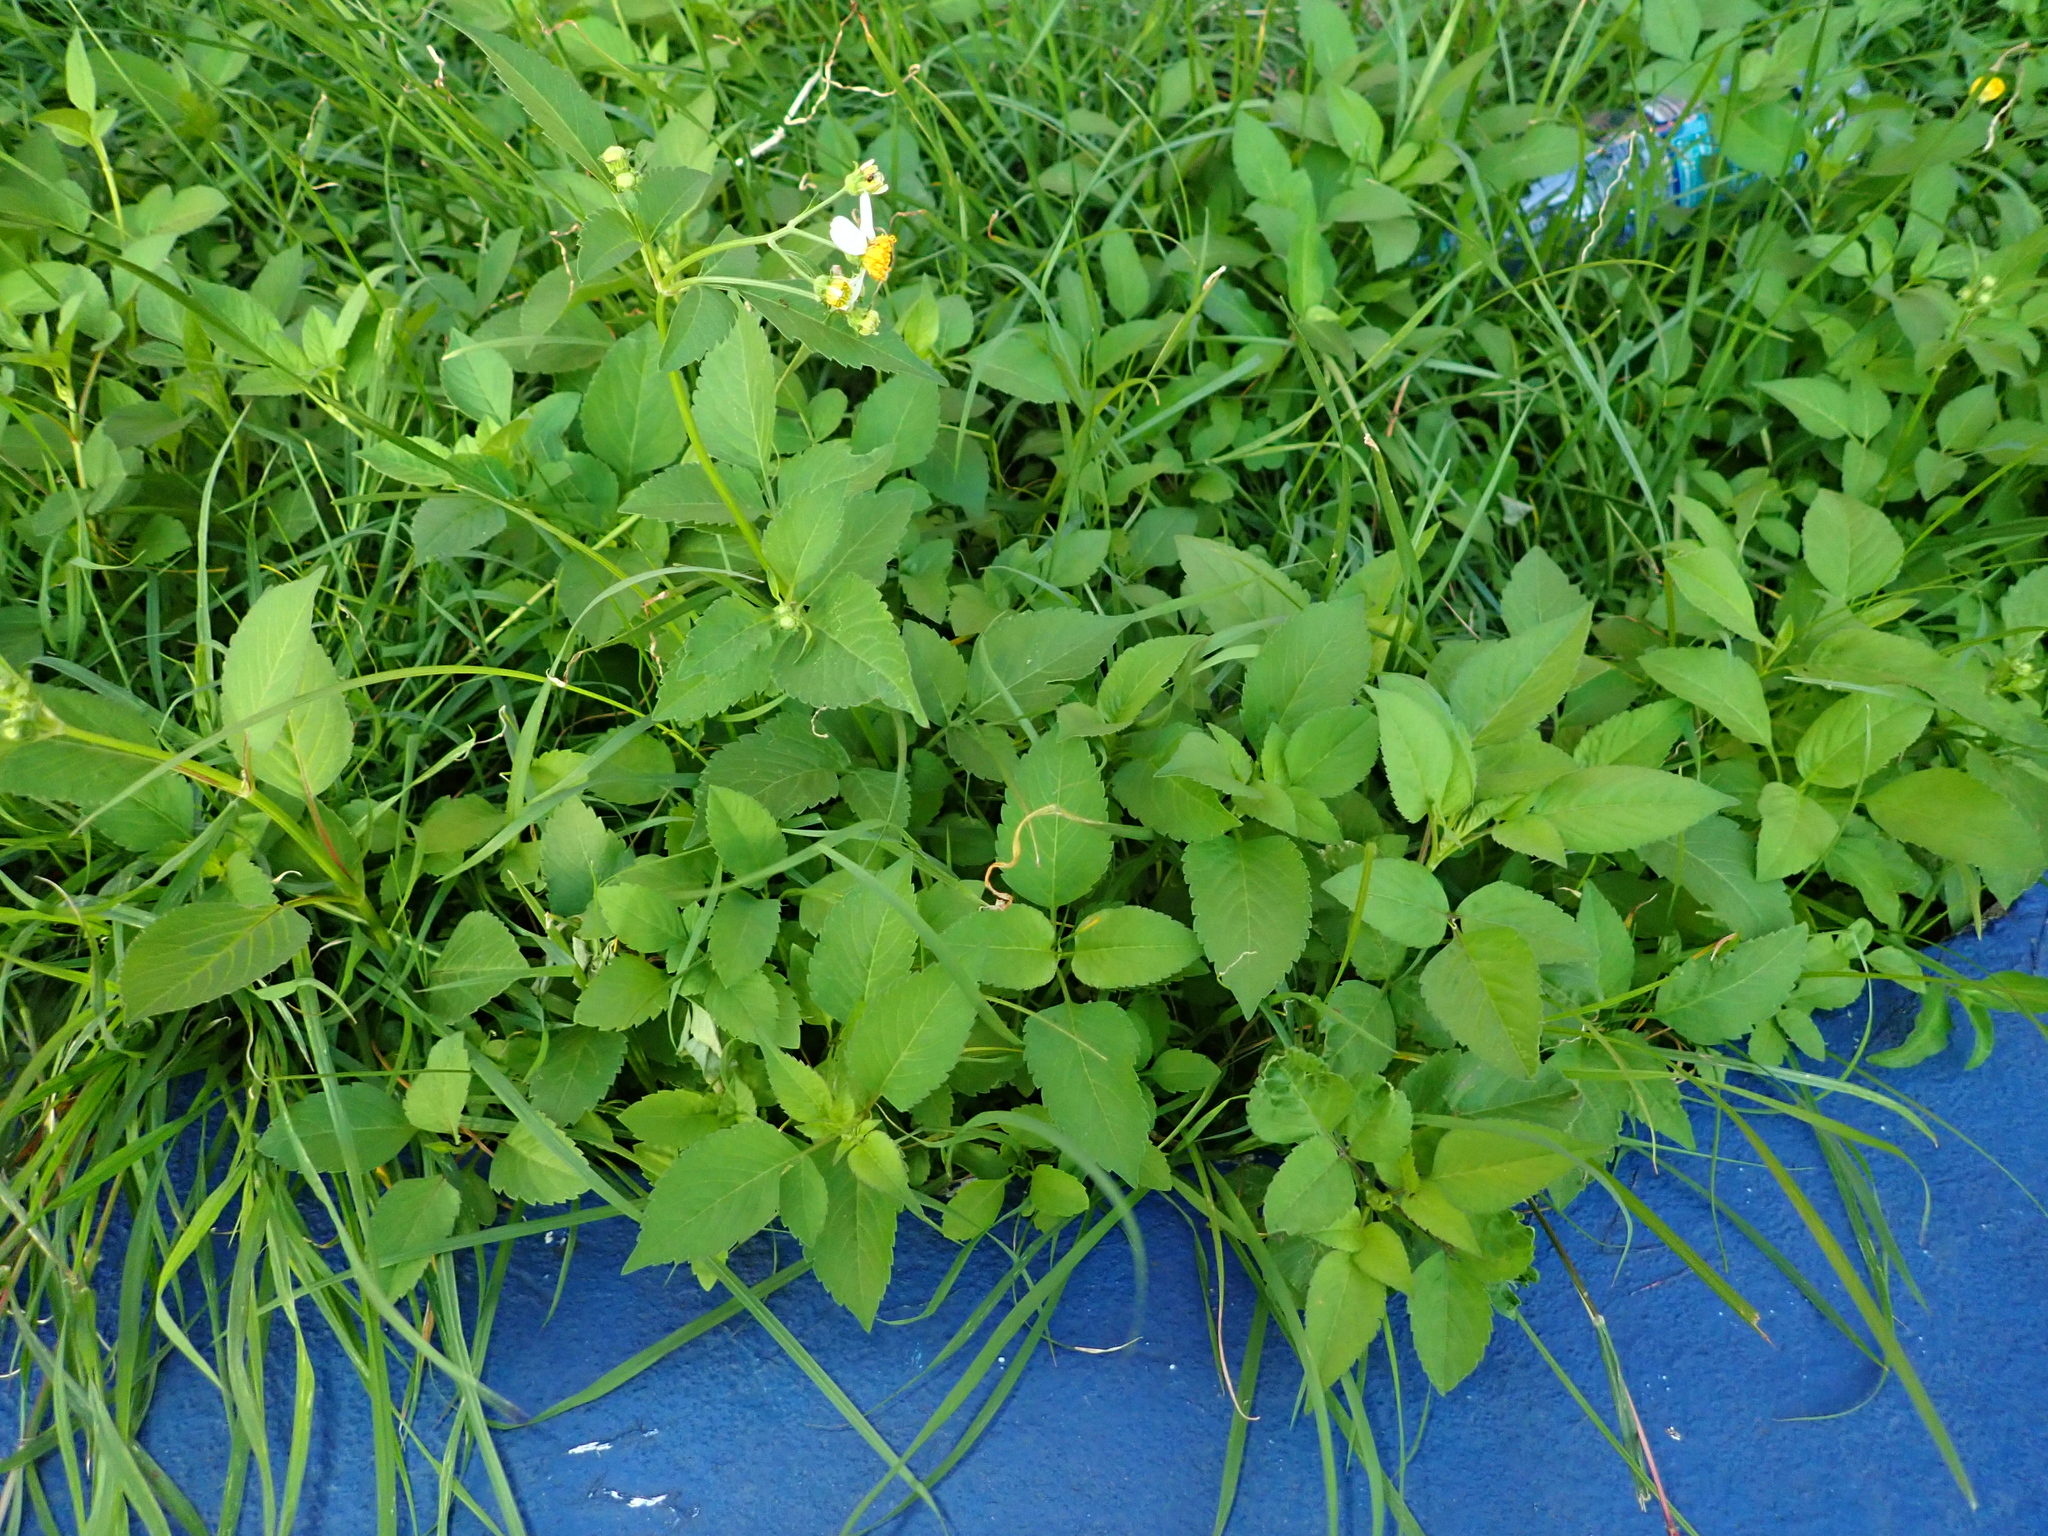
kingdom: Plantae
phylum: Tracheophyta
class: Magnoliopsida
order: Asterales
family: Asteraceae
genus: Bidens
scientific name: Bidens alba
